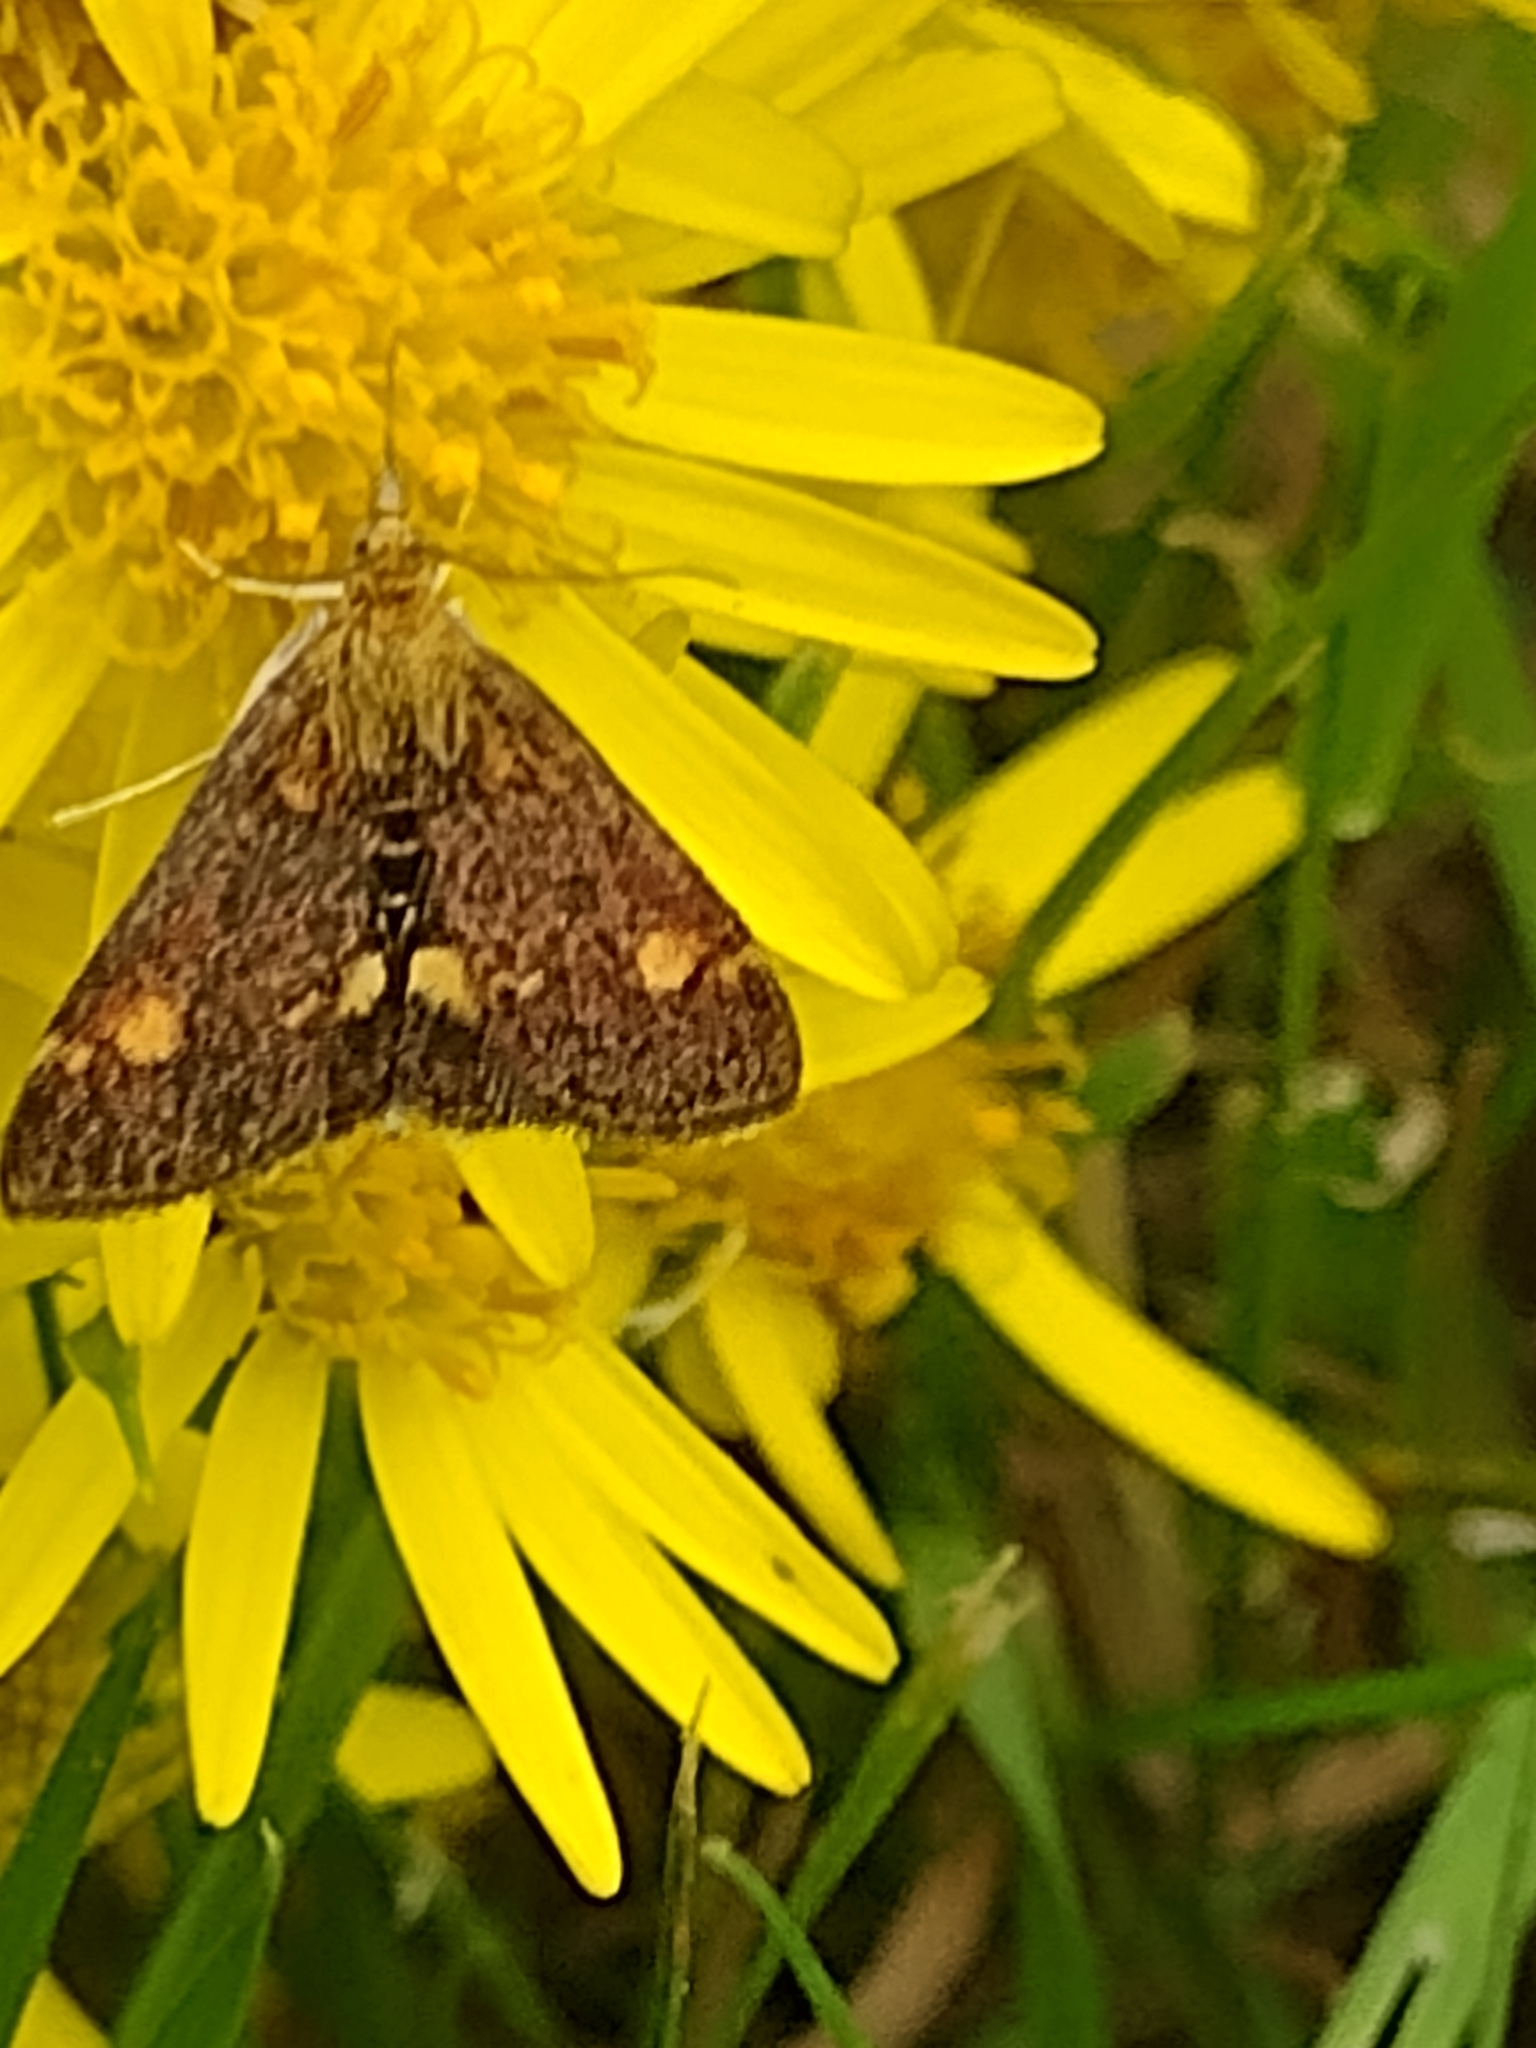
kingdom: Animalia
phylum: Arthropoda
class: Insecta
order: Lepidoptera
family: Crambidae
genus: Pyrausta
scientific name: Pyrausta aurata
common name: Small purple & gold
